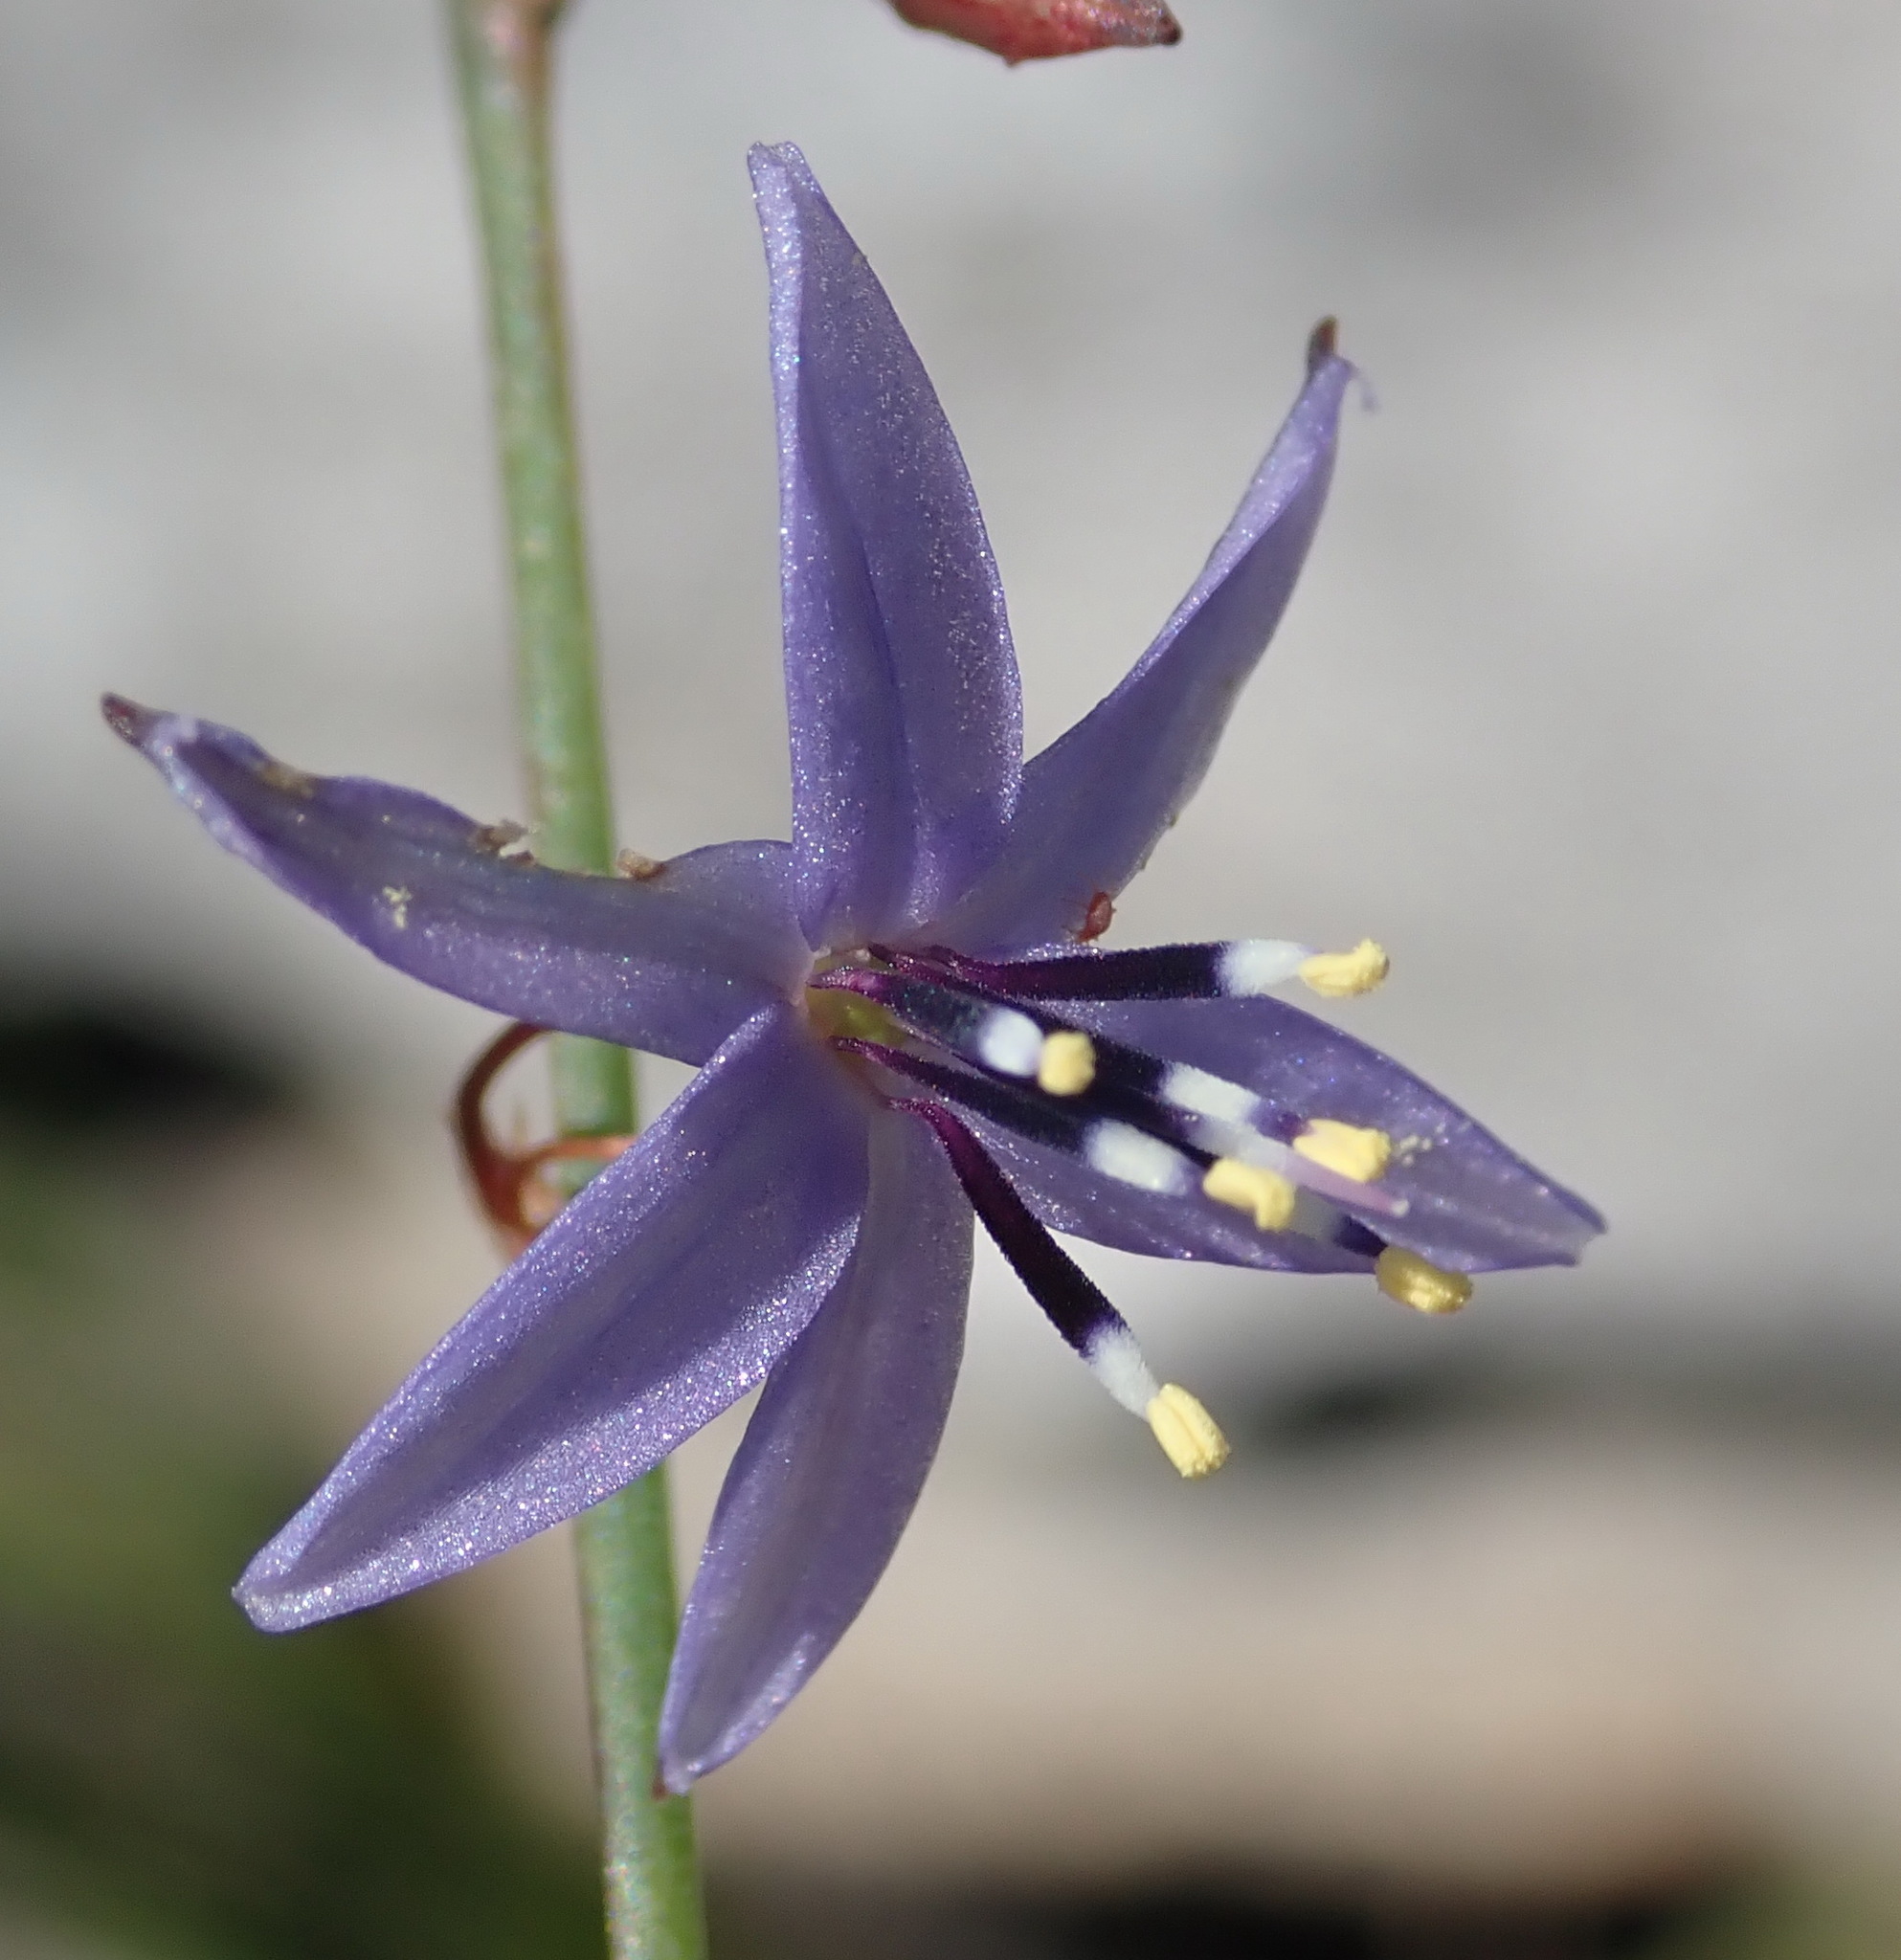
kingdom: Plantae
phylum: Tracheophyta
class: Liliopsida
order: Asparagales
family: Asphodelaceae
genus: Caesia
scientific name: Caesia contorta
